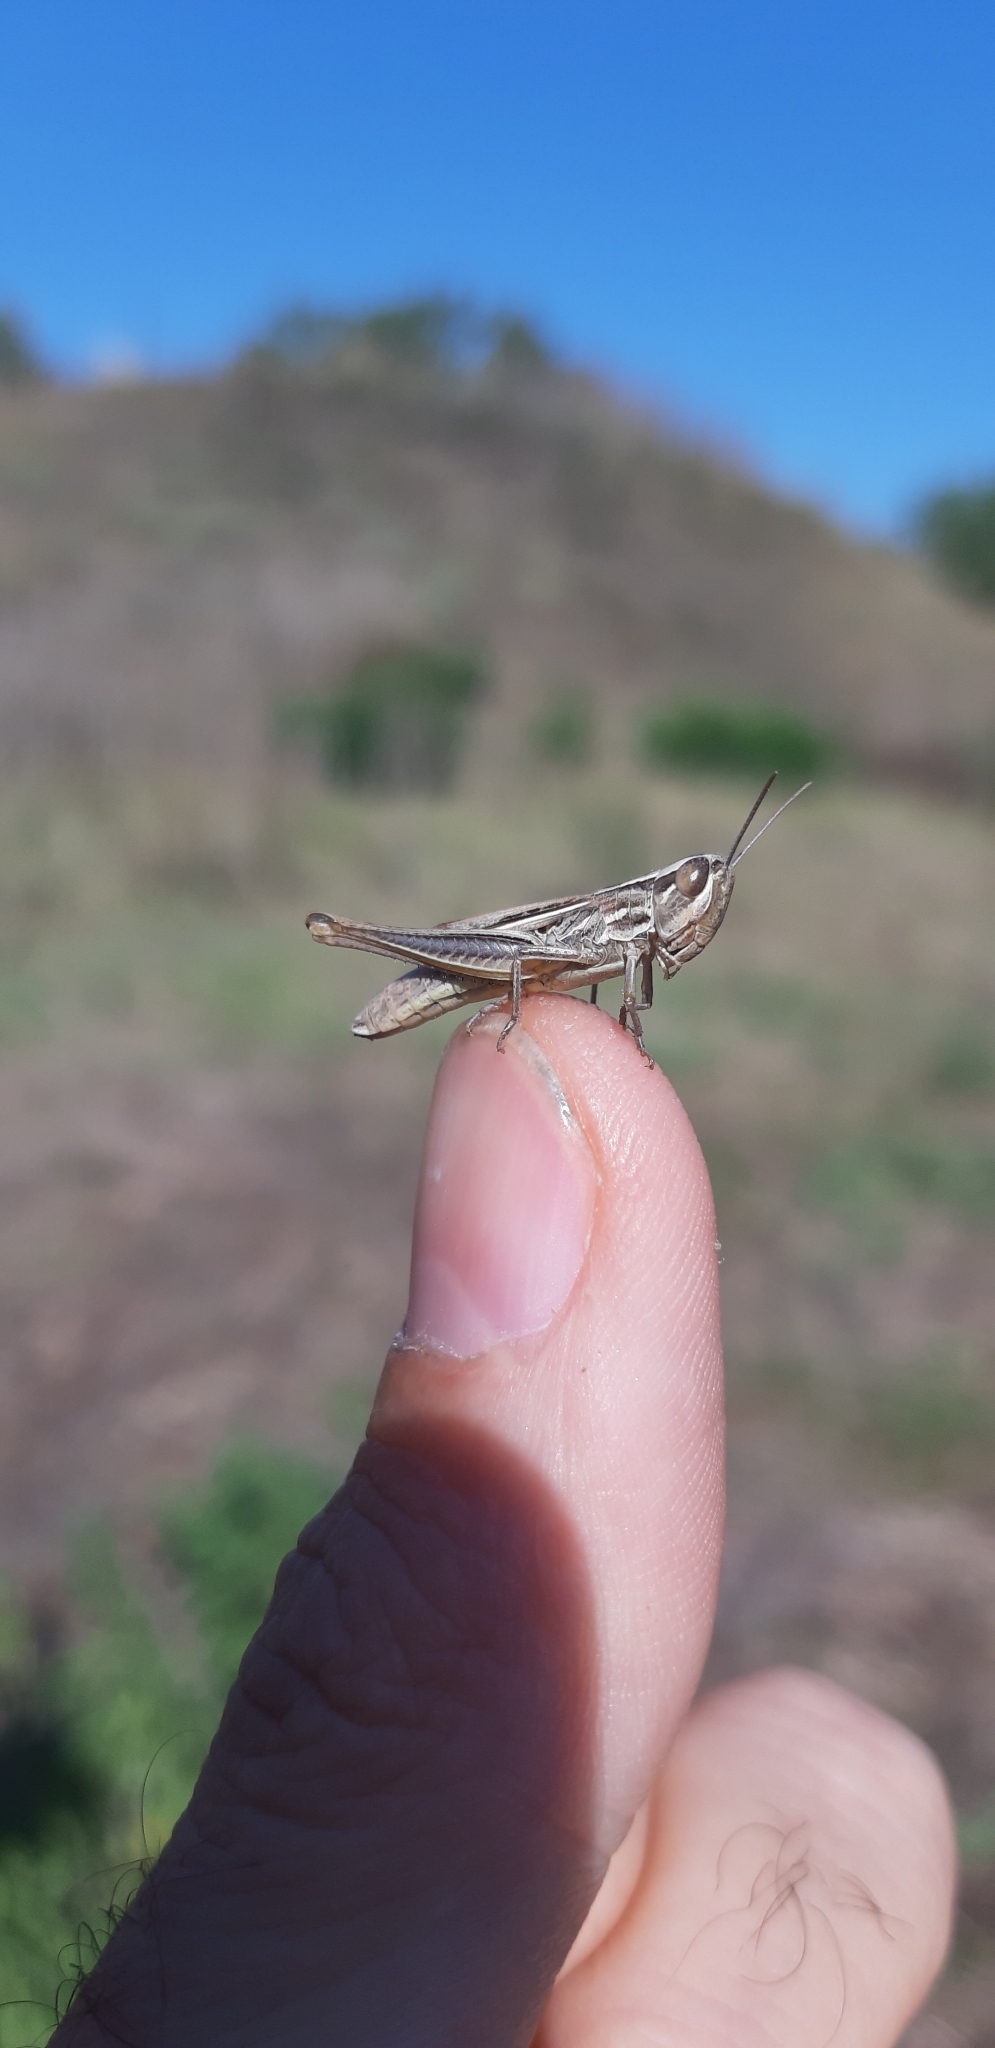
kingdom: Animalia
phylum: Arthropoda
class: Insecta
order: Orthoptera
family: Acrididae
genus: Euchorthippus
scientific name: Euchorthippus declivus
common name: Common straw grasshopper
